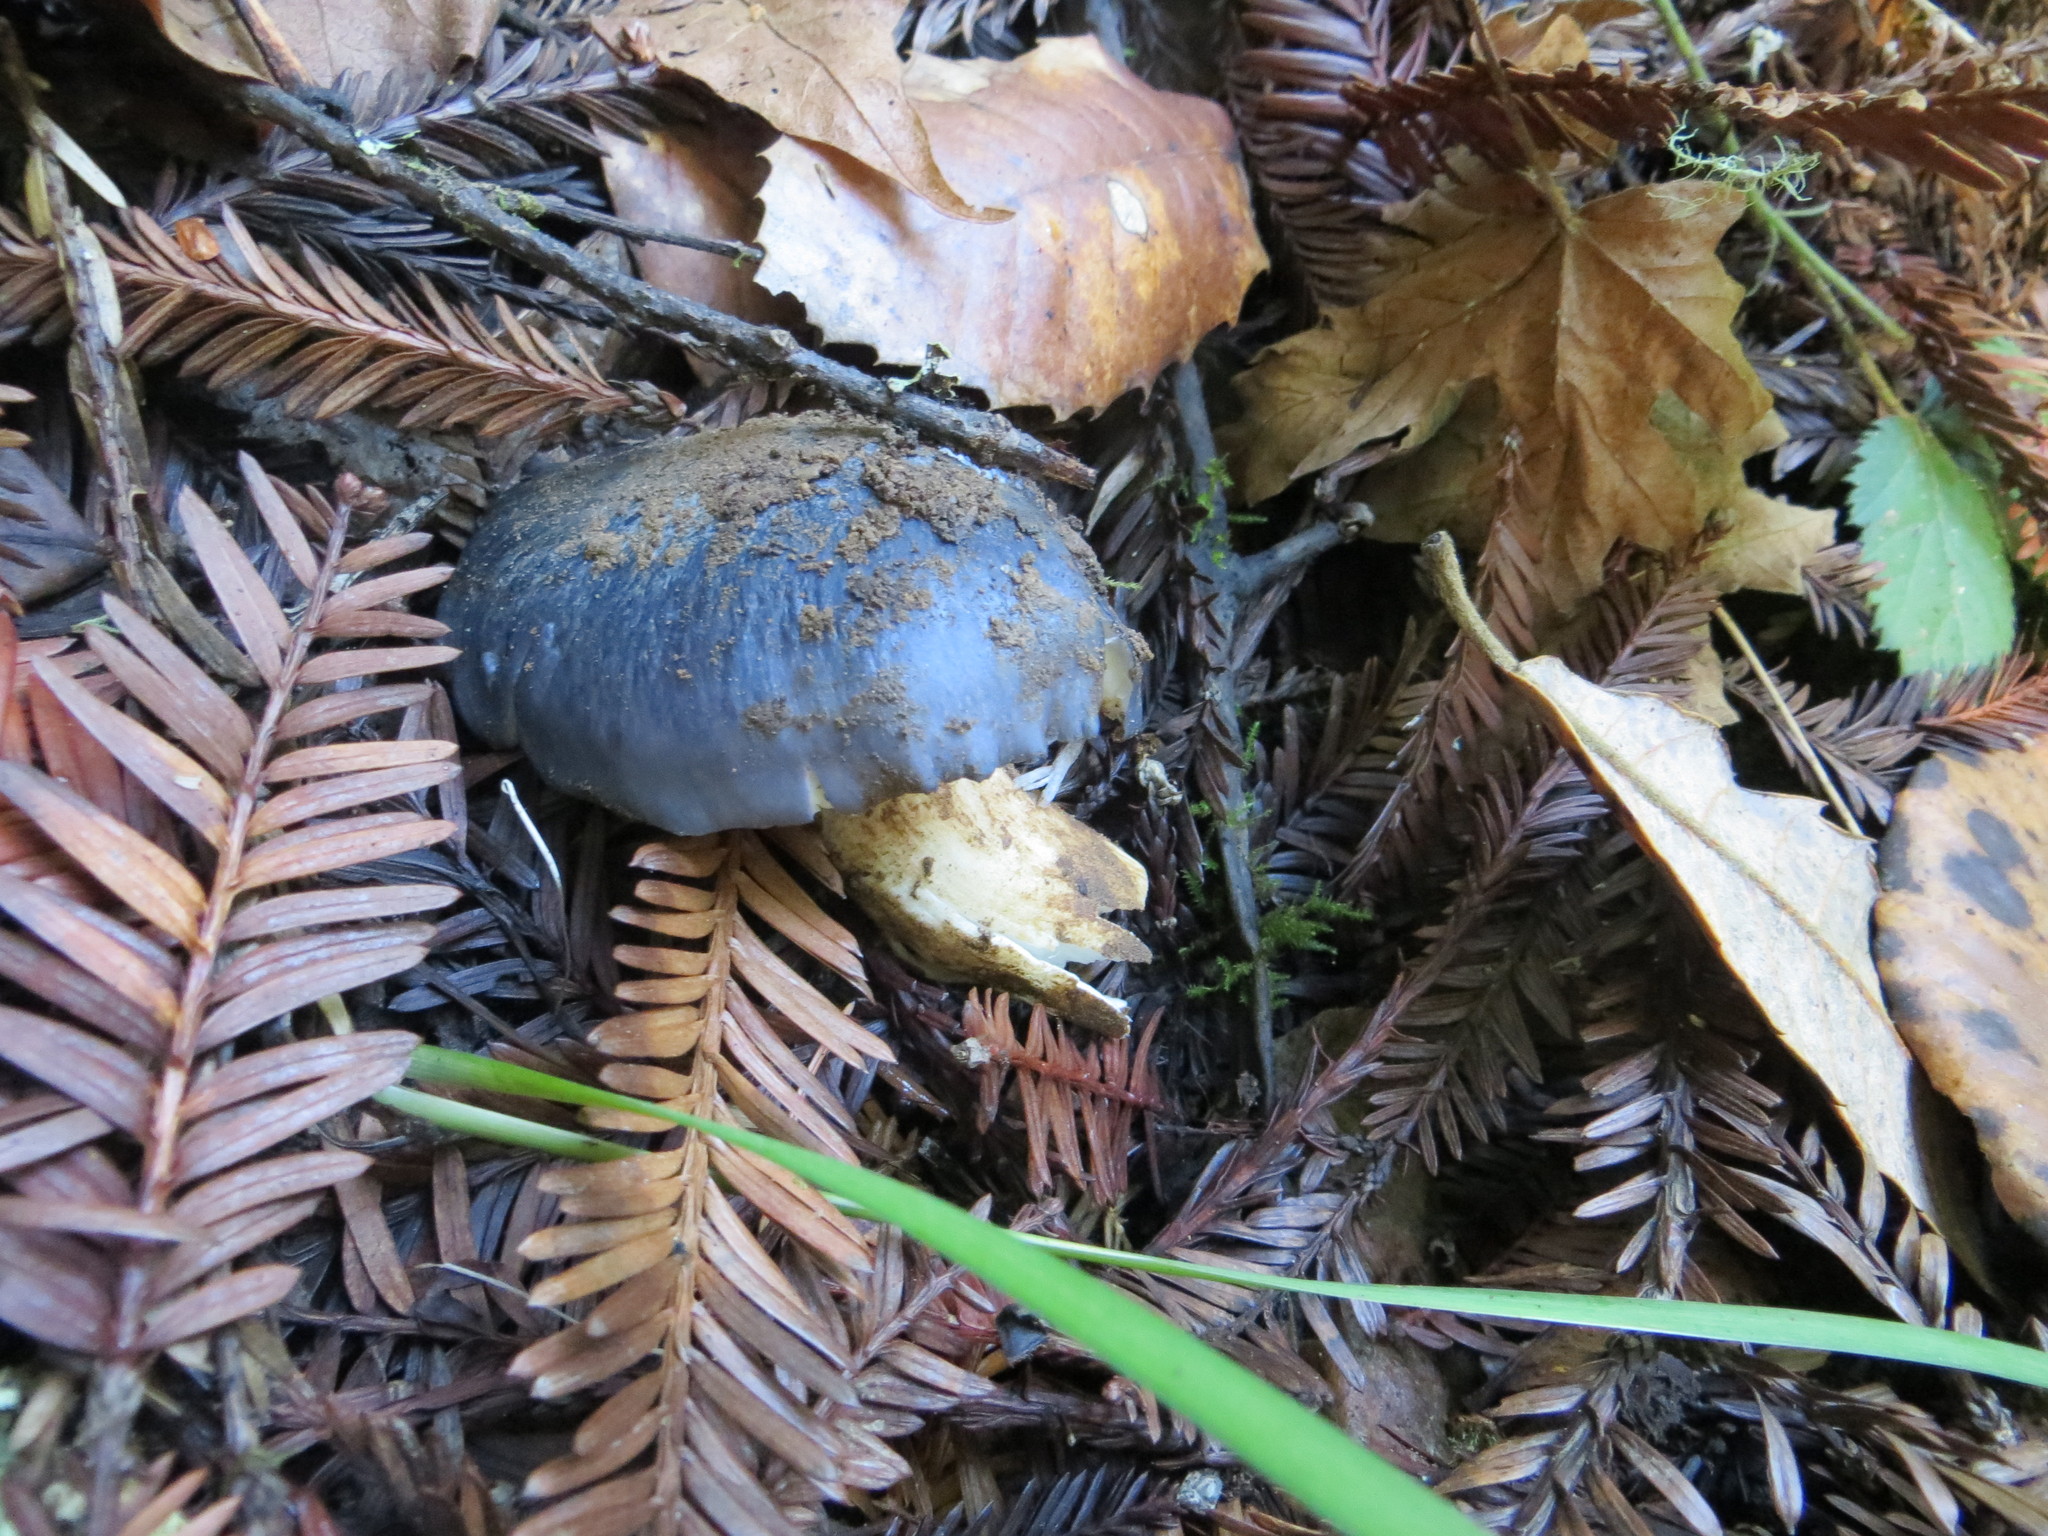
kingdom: Fungi
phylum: Basidiomycota
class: Agaricomycetes
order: Agaricales
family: Entolomataceae
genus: Entoloma
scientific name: Entoloma medianox
